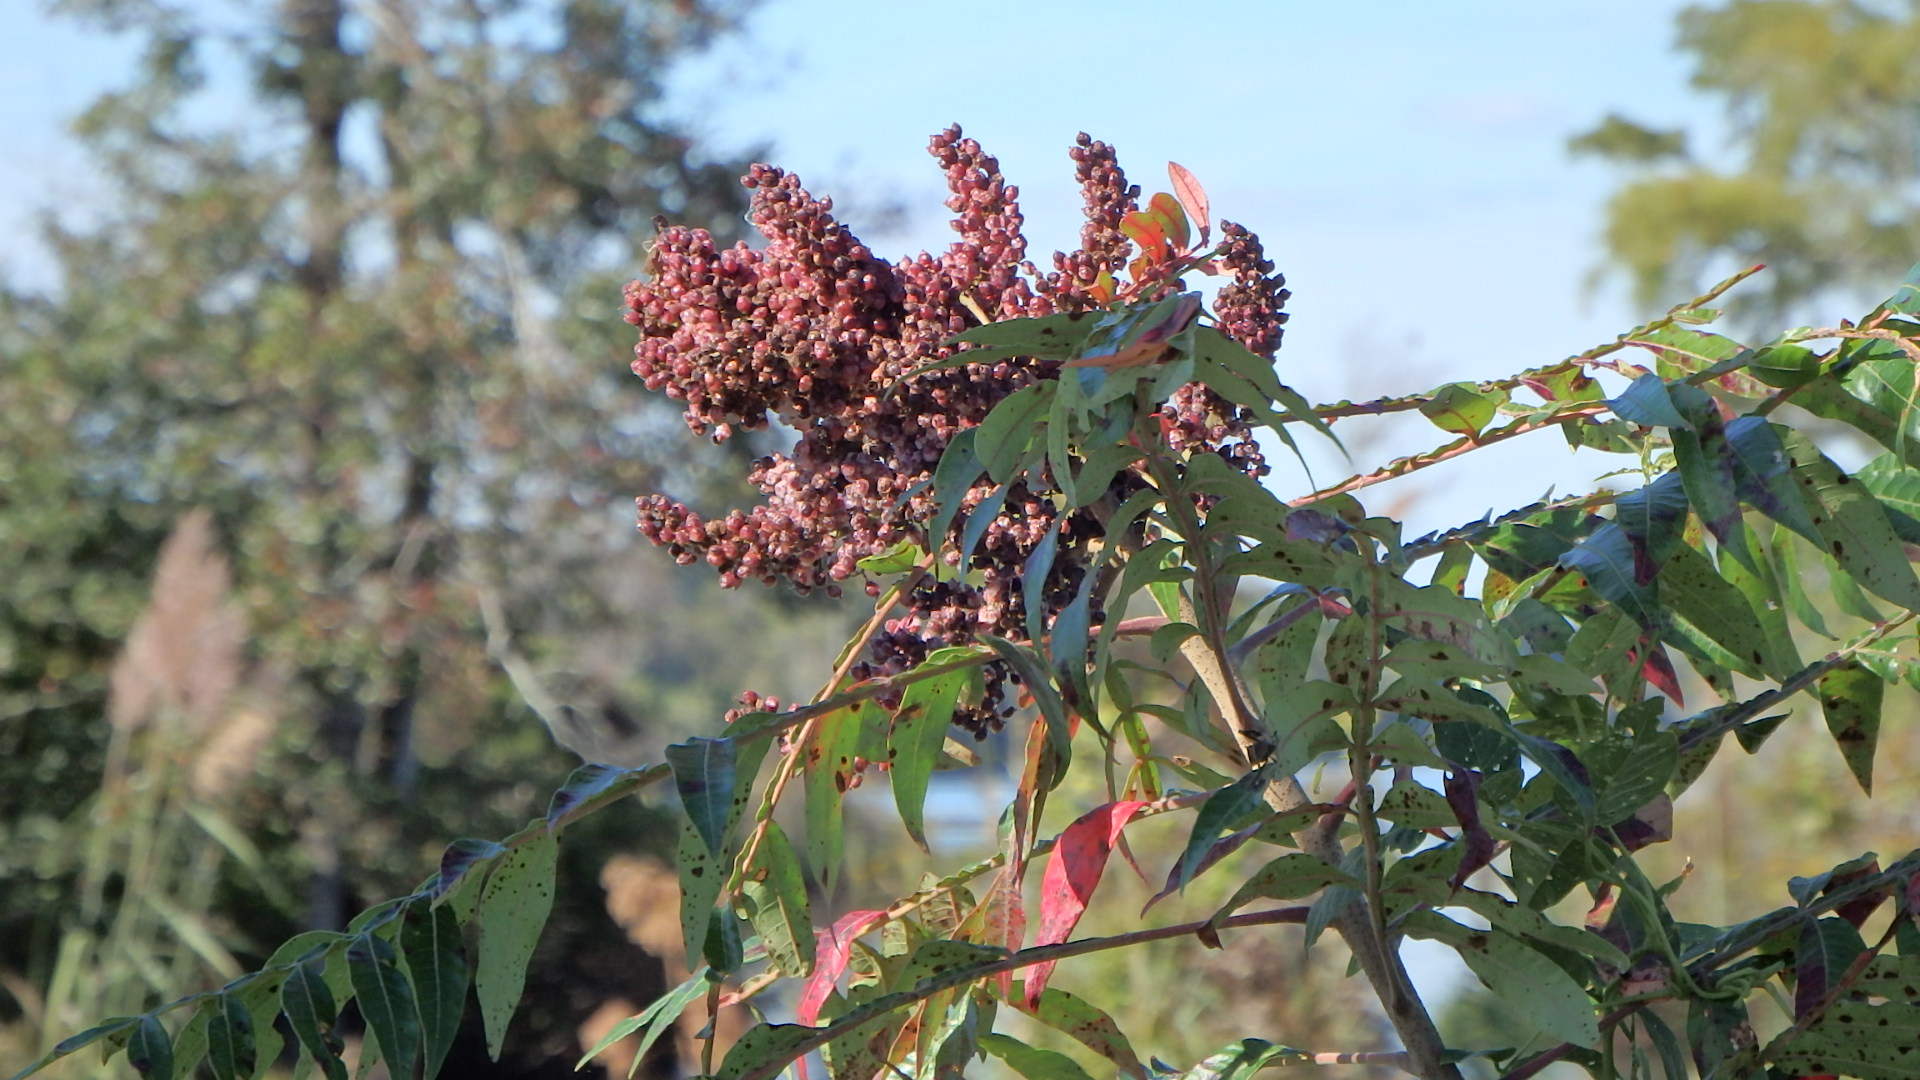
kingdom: Plantae
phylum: Tracheophyta
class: Magnoliopsida
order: Sapindales
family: Anacardiaceae
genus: Rhus
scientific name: Rhus copallina
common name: Shining sumac
